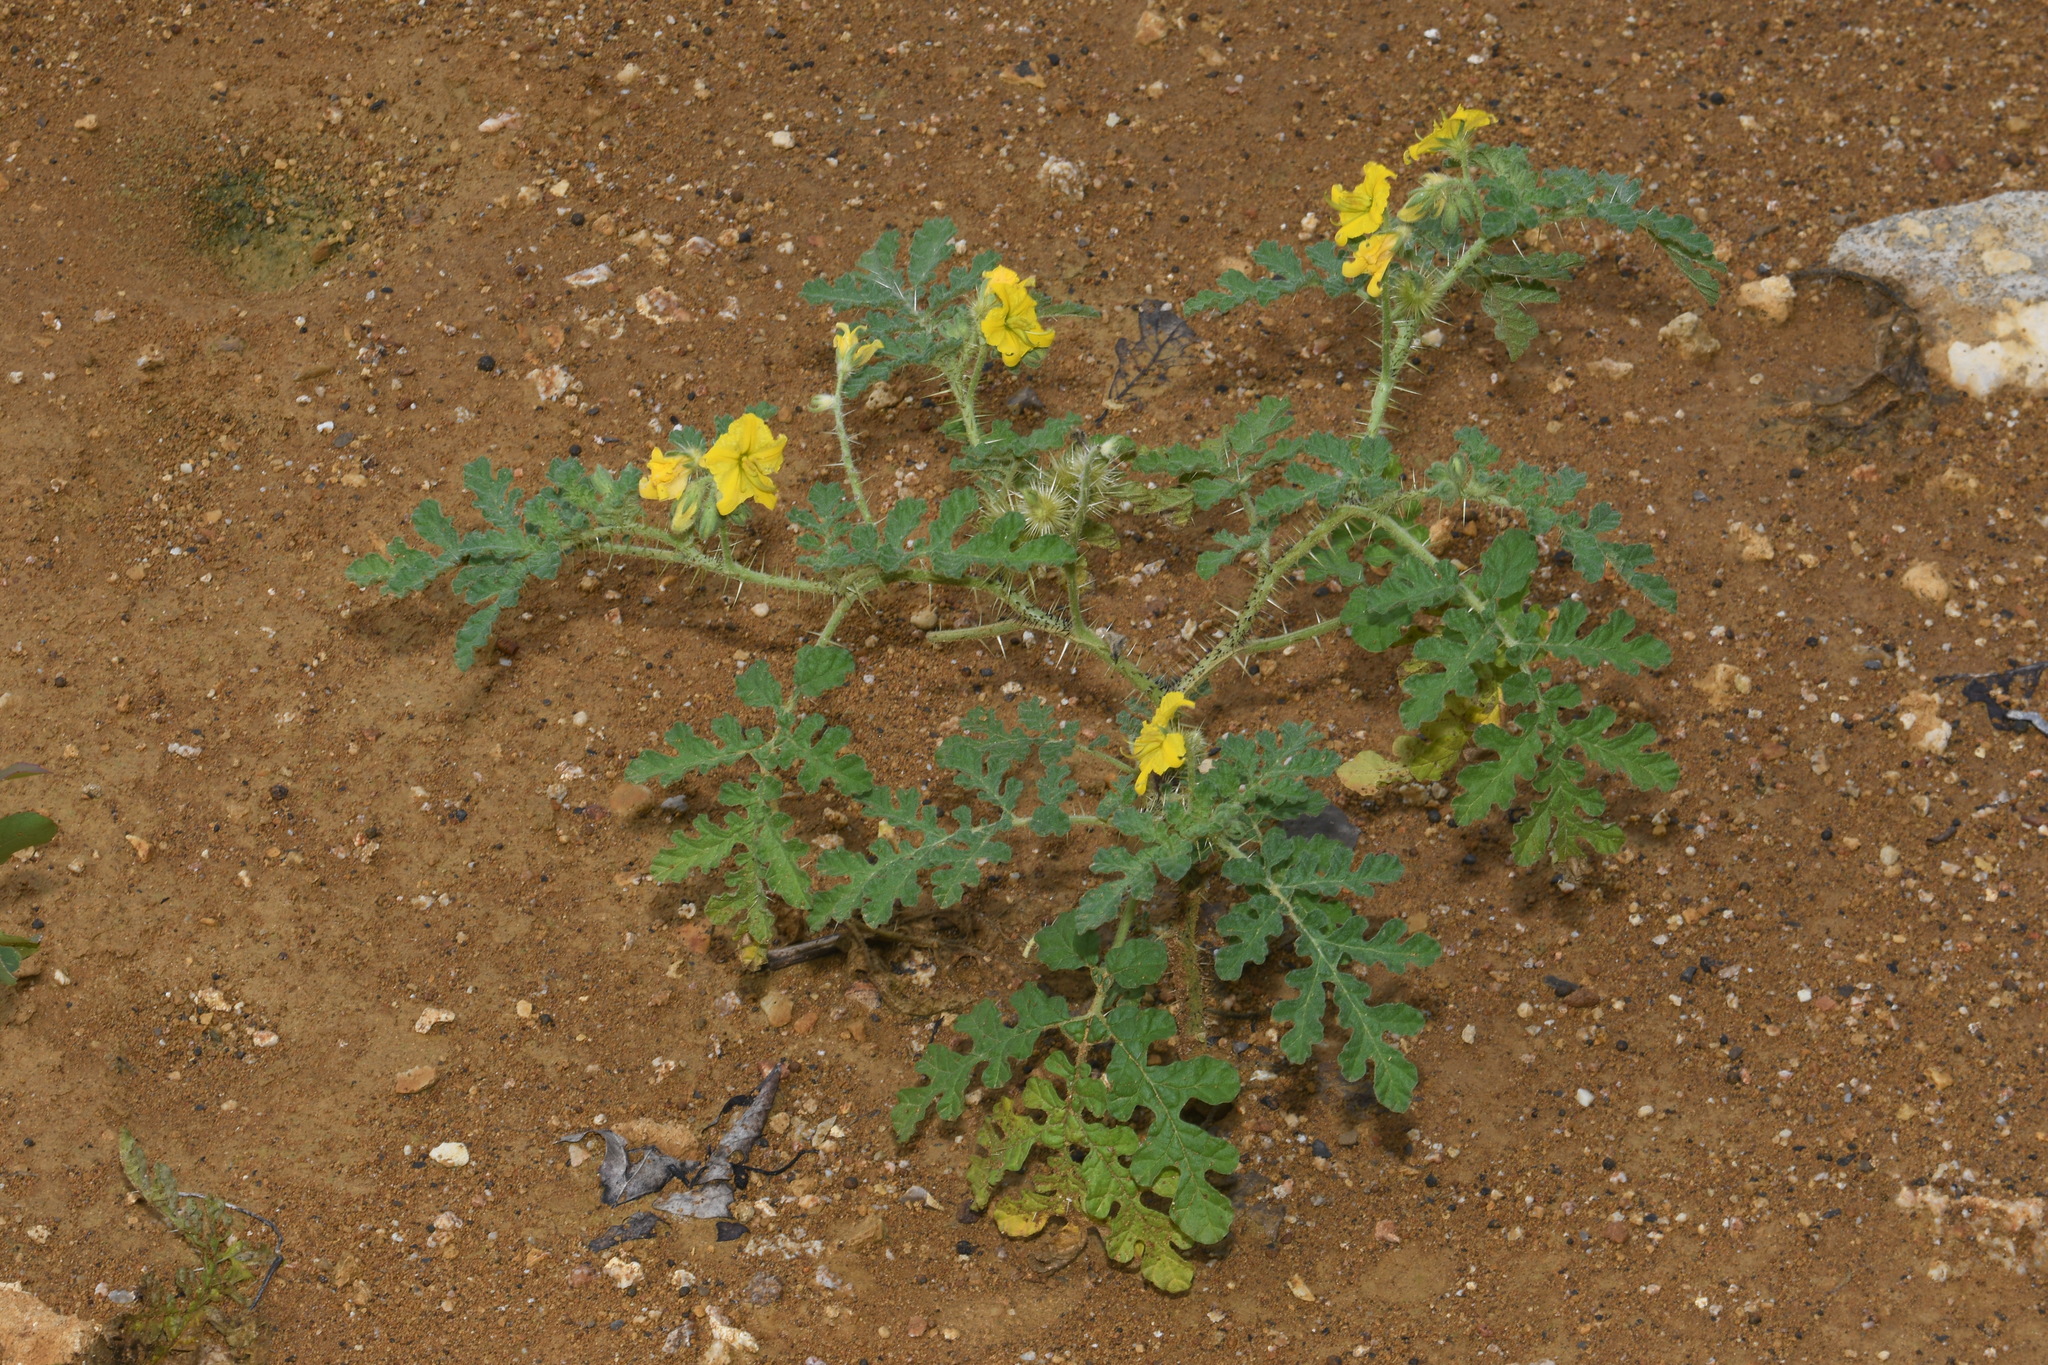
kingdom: Plantae
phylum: Tracheophyta
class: Magnoliopsida
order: Solanales
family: Solanaceae
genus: Solanum
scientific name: Solanum angustifolium
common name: Buffalobur nightshade
